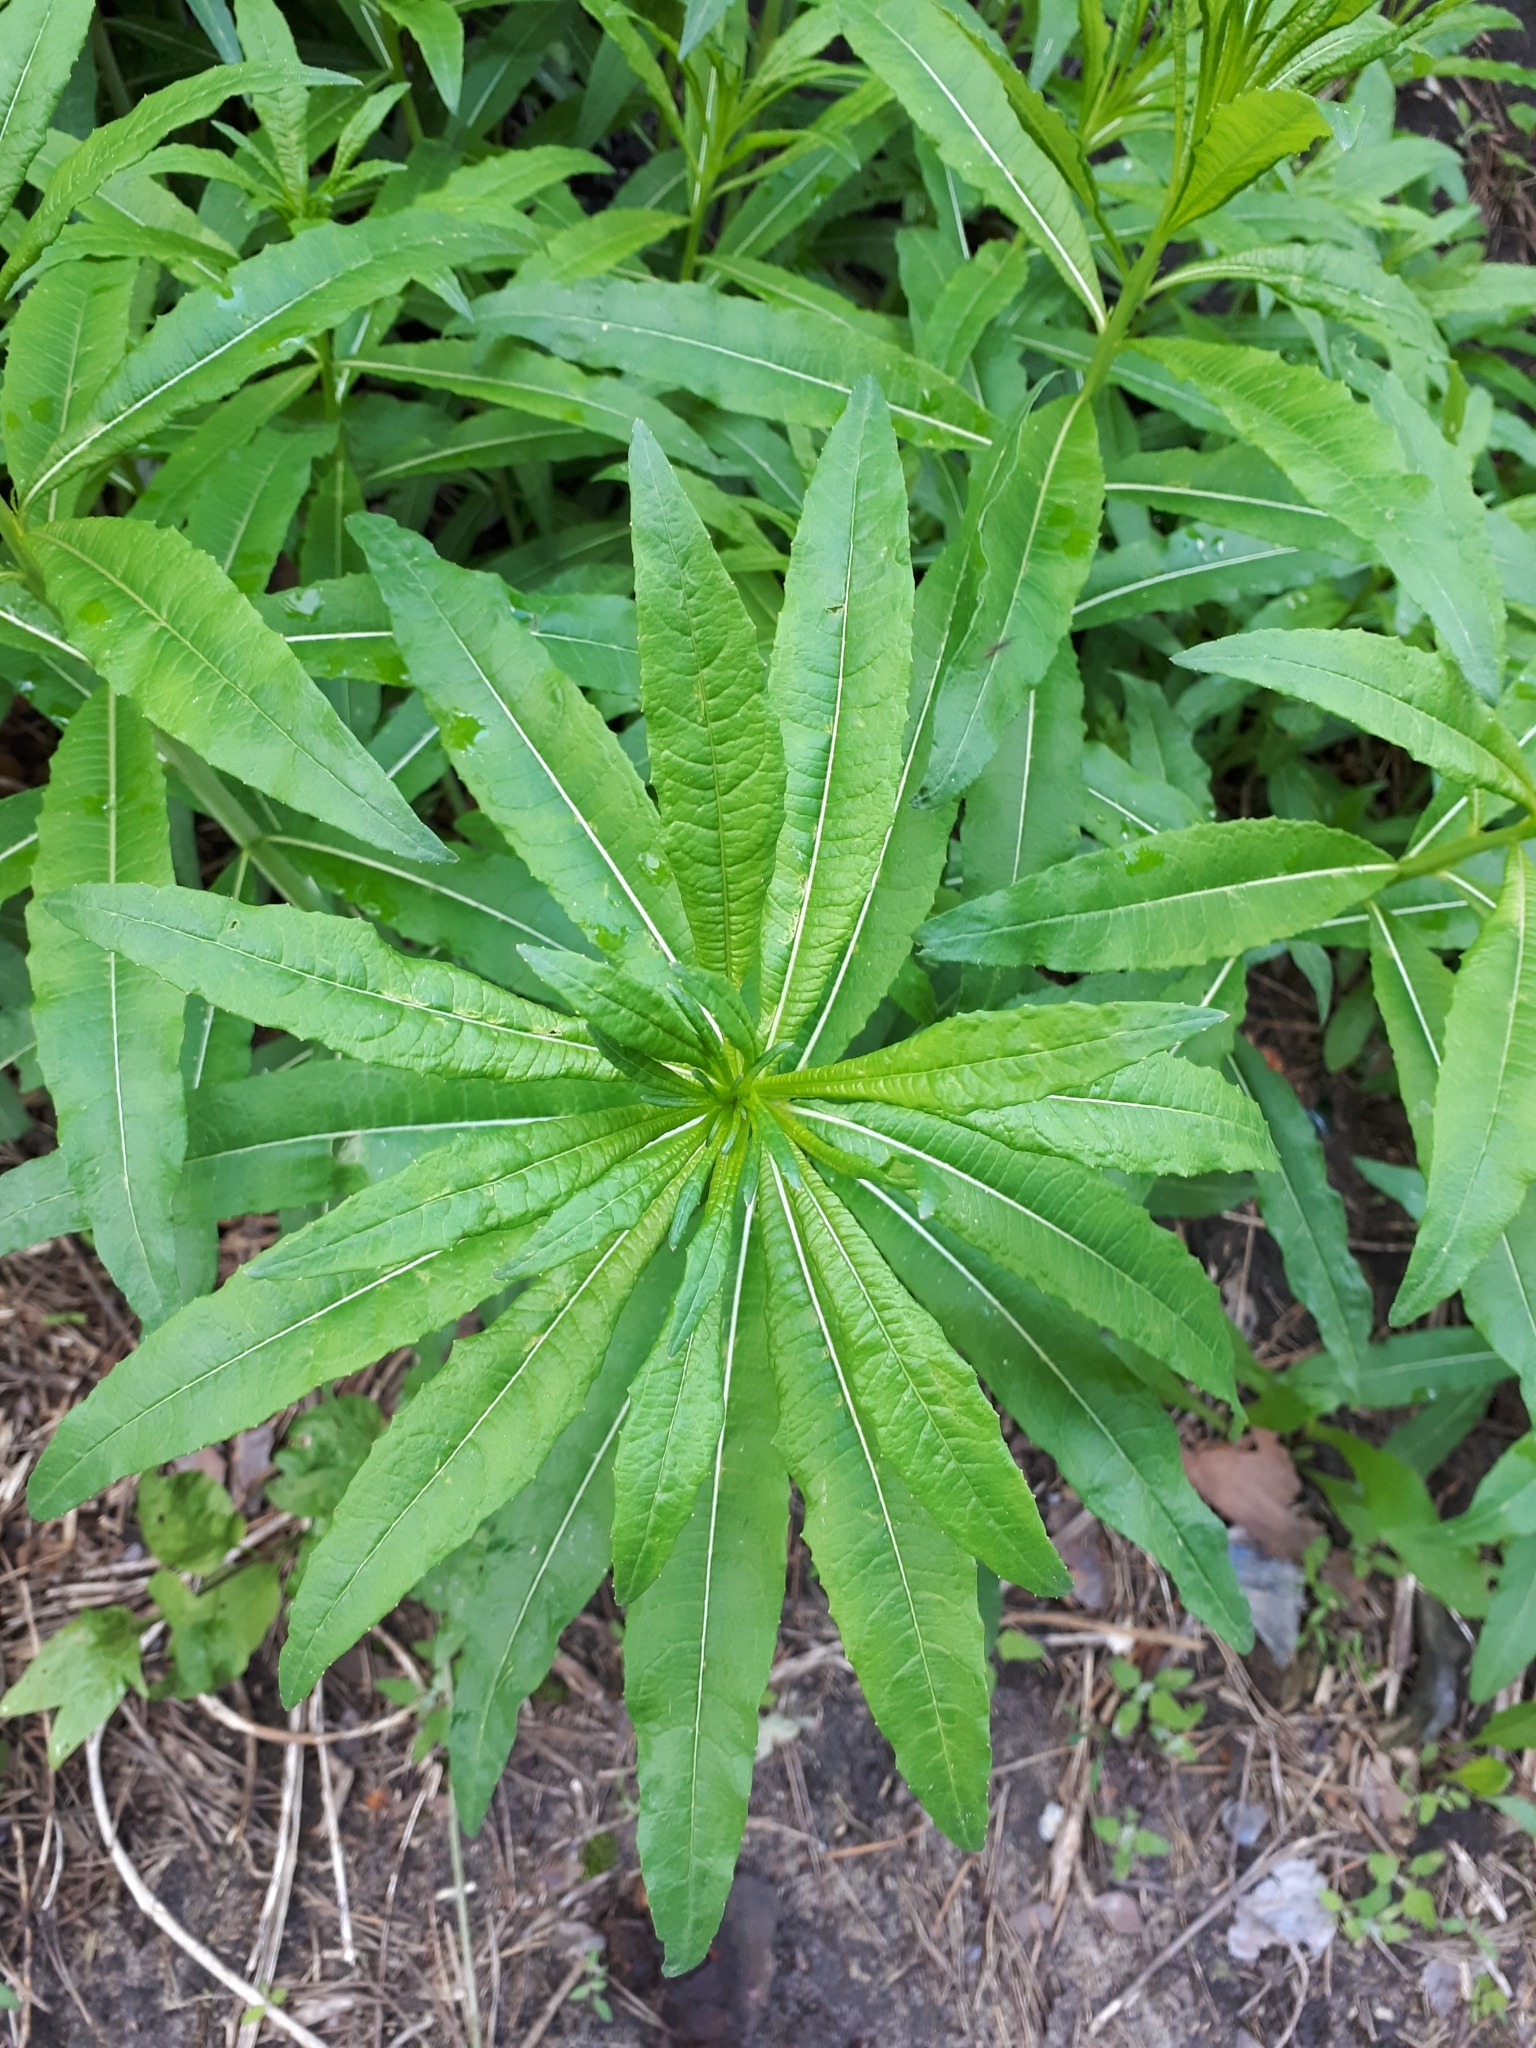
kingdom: Plantae
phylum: Tracheophyta
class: Magnoliopsida
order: Myrtales
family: Onagraceae
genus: Chamaenerion
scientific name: Chamaenerion angustifolium
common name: Fireweed
